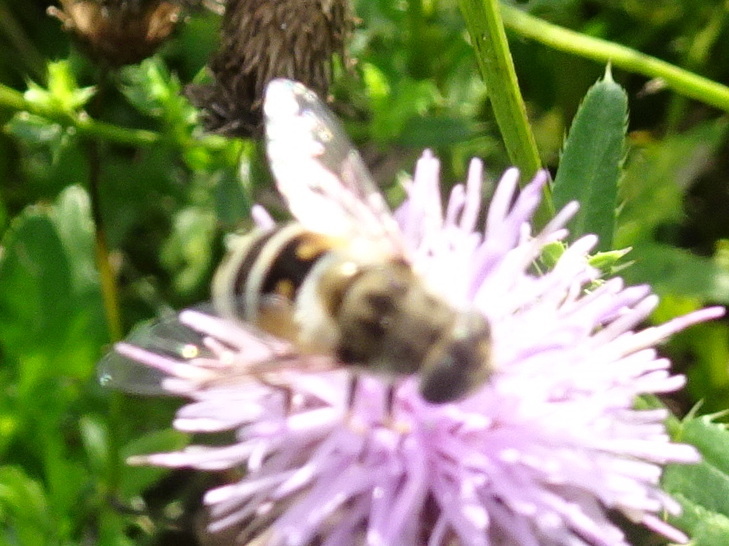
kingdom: Animalia
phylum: Arthropoda
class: Insecta
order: Diptera
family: Syrphidae
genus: Eristalis
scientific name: Eristalis arbustorum
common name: Hover fly
